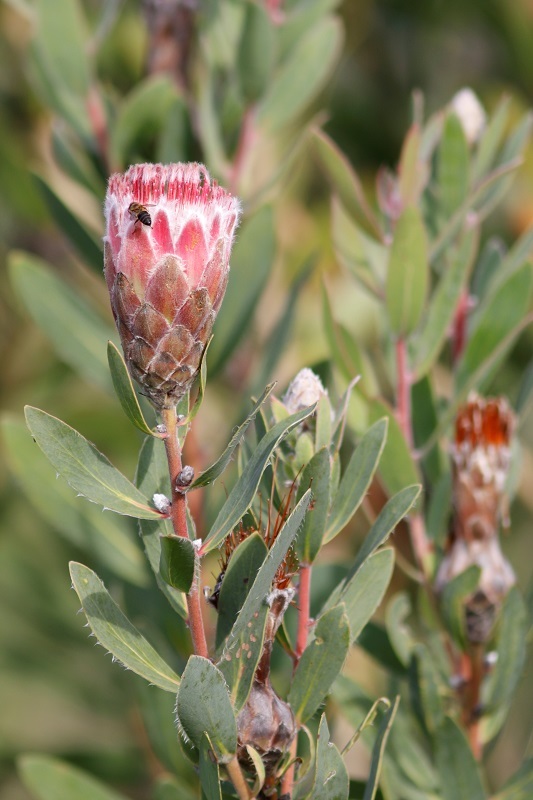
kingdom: Plantae
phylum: Tracheophyta
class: Magnoliopsida
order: Proteales
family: Proteaceae
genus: Protea
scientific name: Protea mundii
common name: Forest sugarbush
